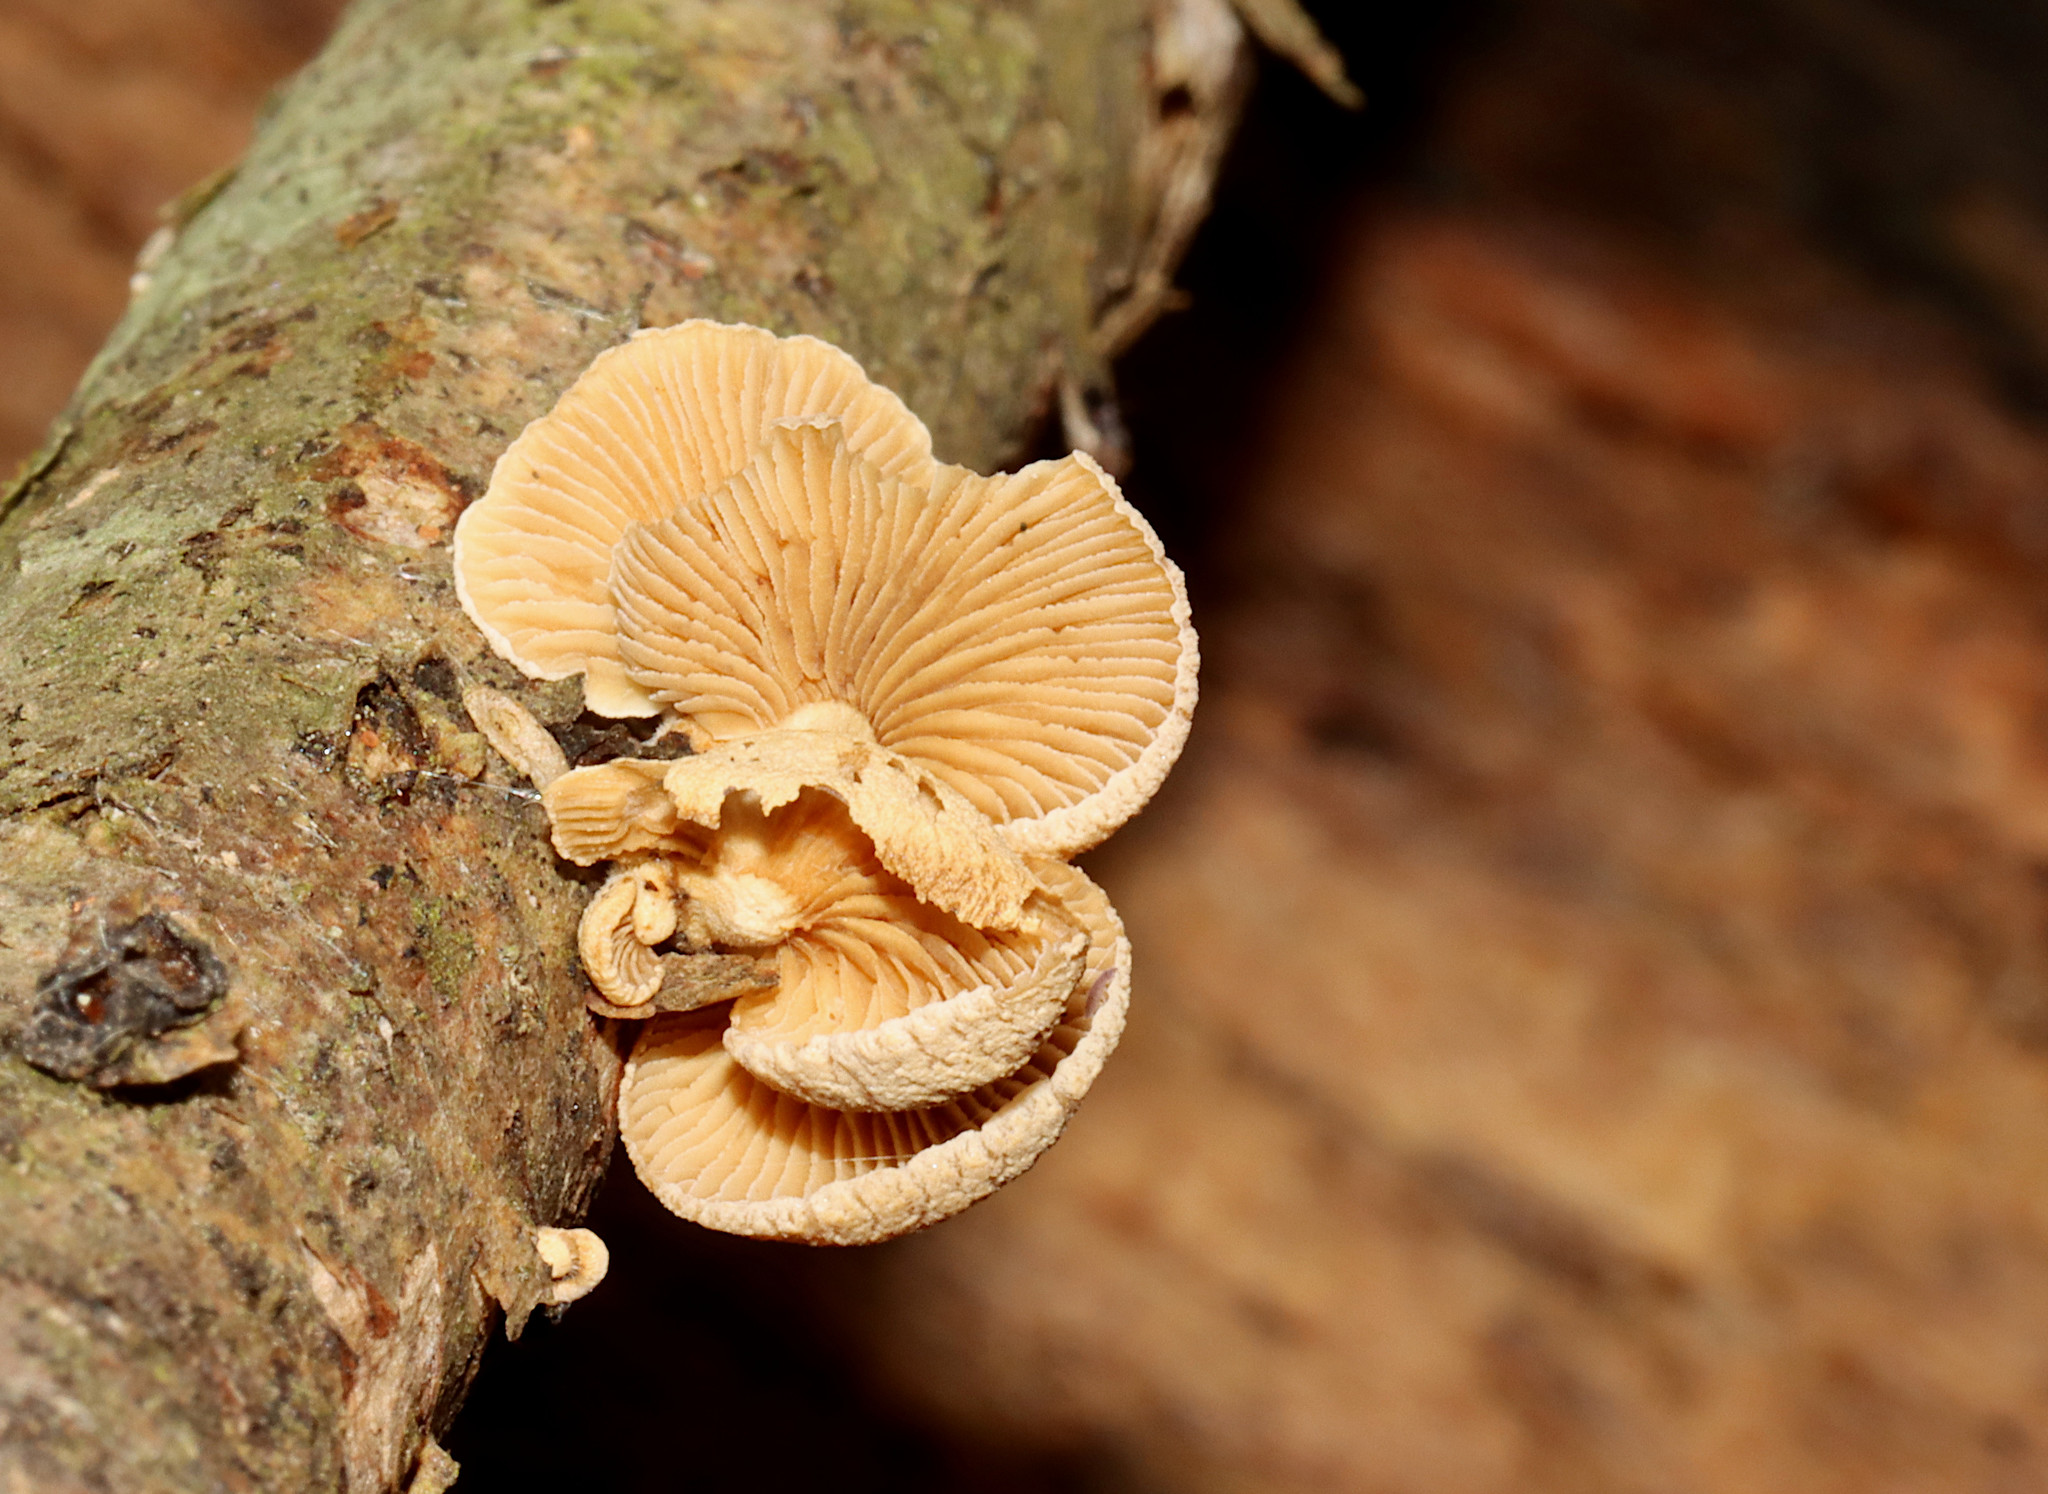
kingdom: Fungi
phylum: Basidiomycota
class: Agaricomycetes
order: Agaricales
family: Mycenaceae
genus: Panellus
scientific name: Panellus stipticus
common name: Bitter oysterling
